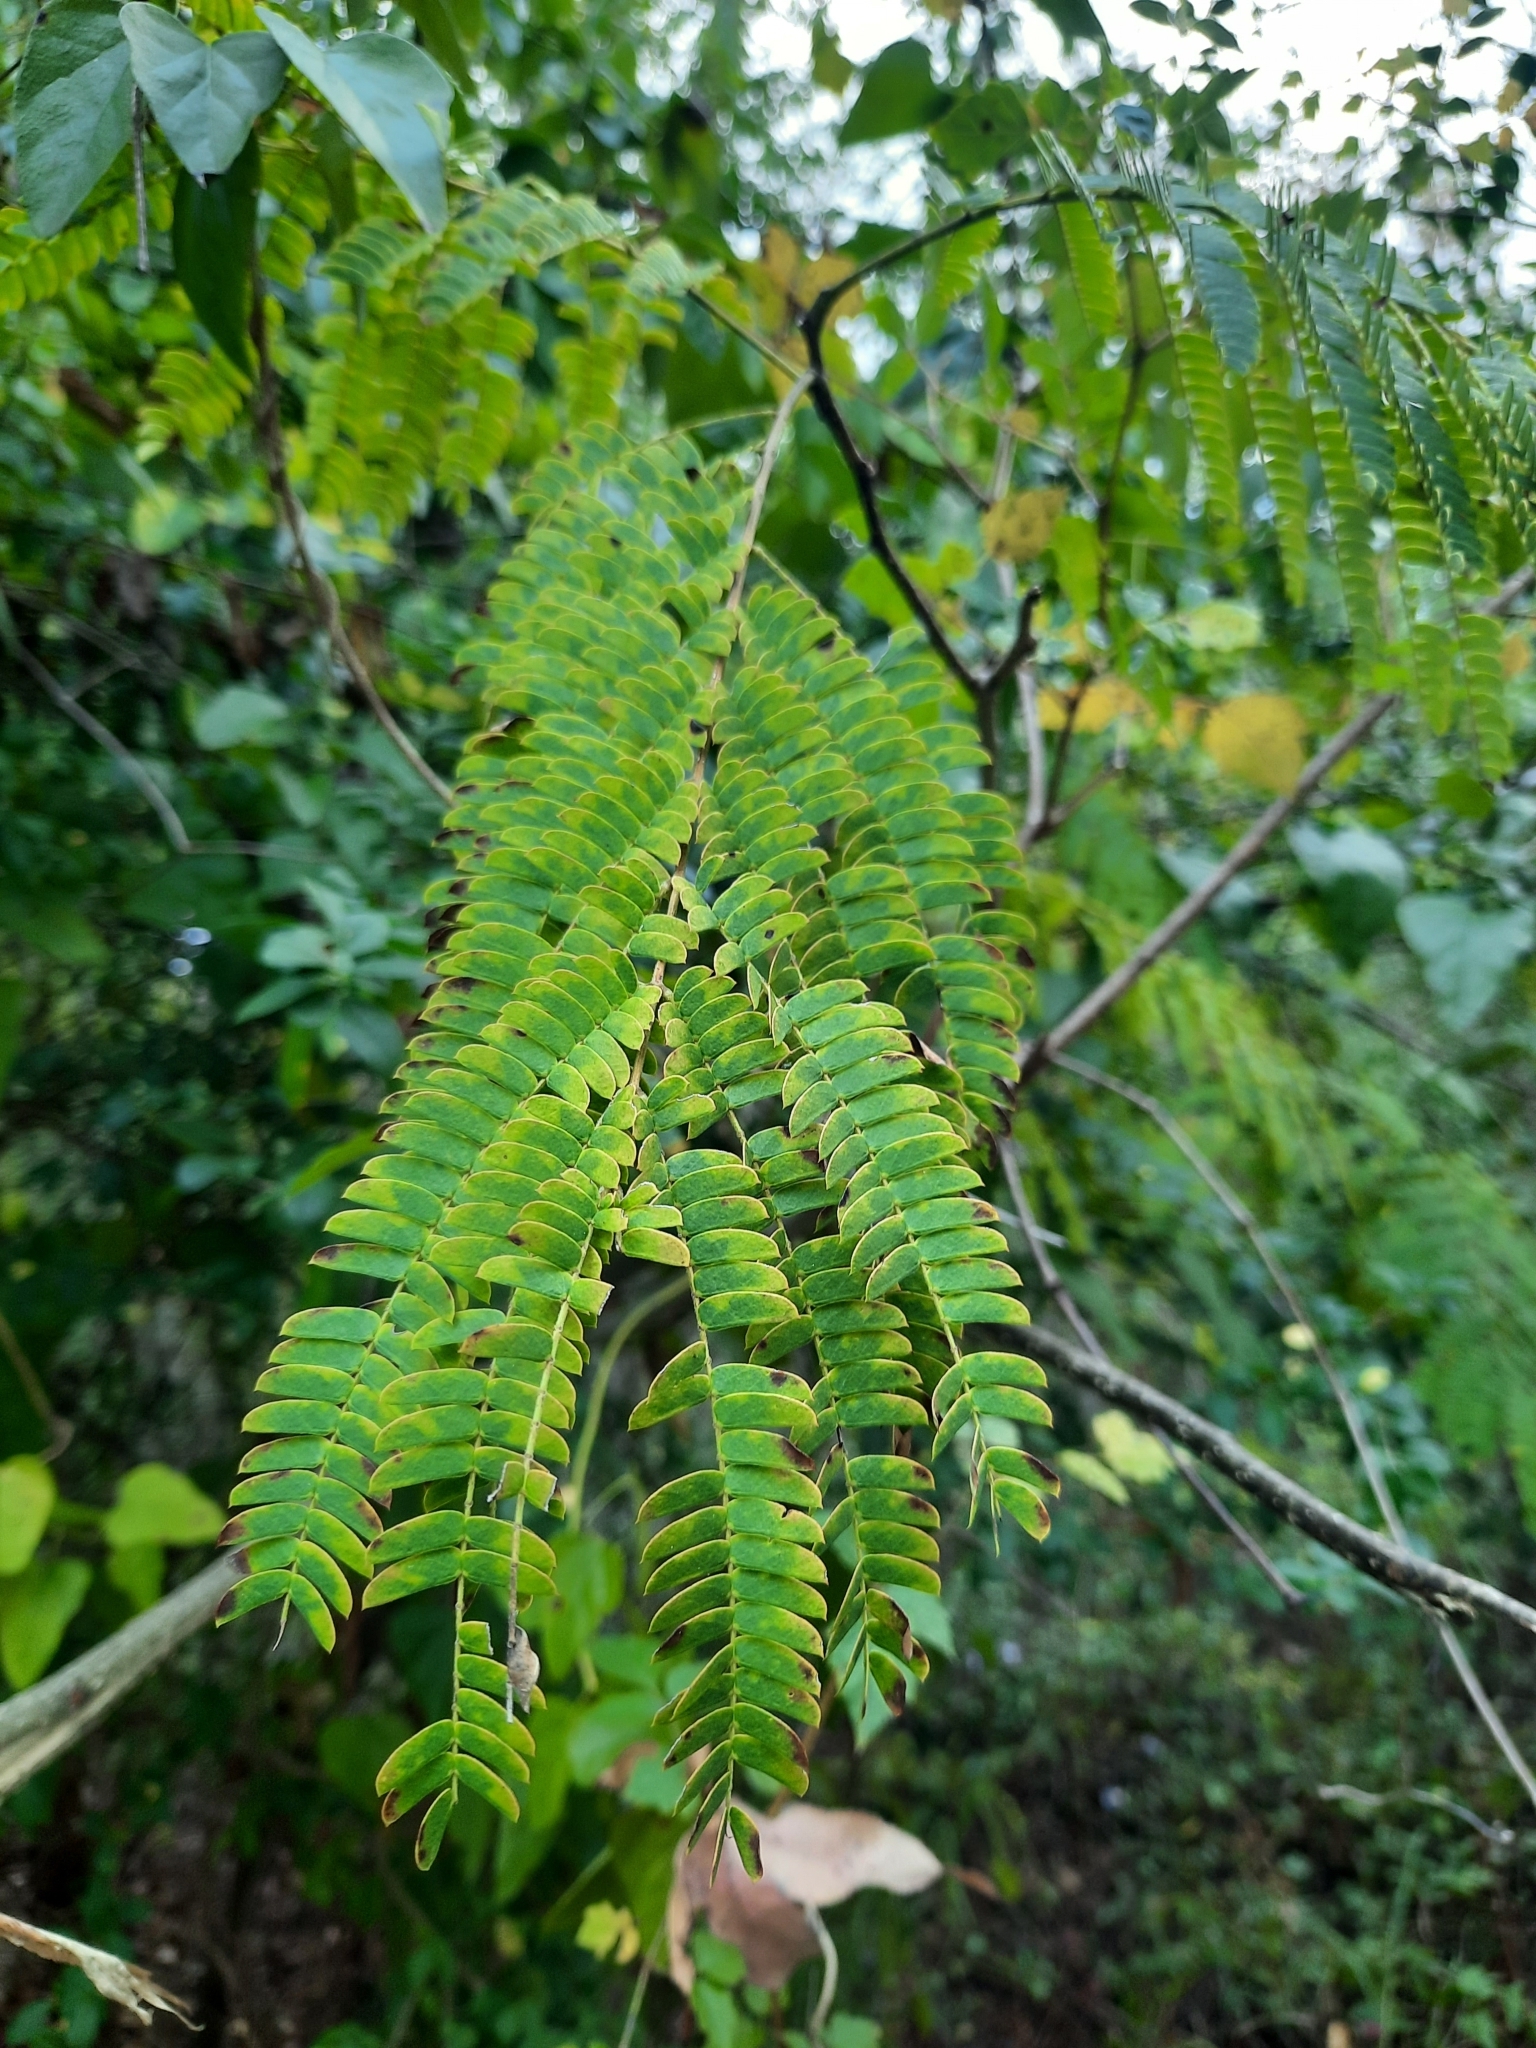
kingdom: Plantae
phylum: Tracheophyta
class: Magnoliopsida
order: Fabales
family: Fabaceae
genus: Albizia
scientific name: Albizia julibrissin
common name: Silktree
